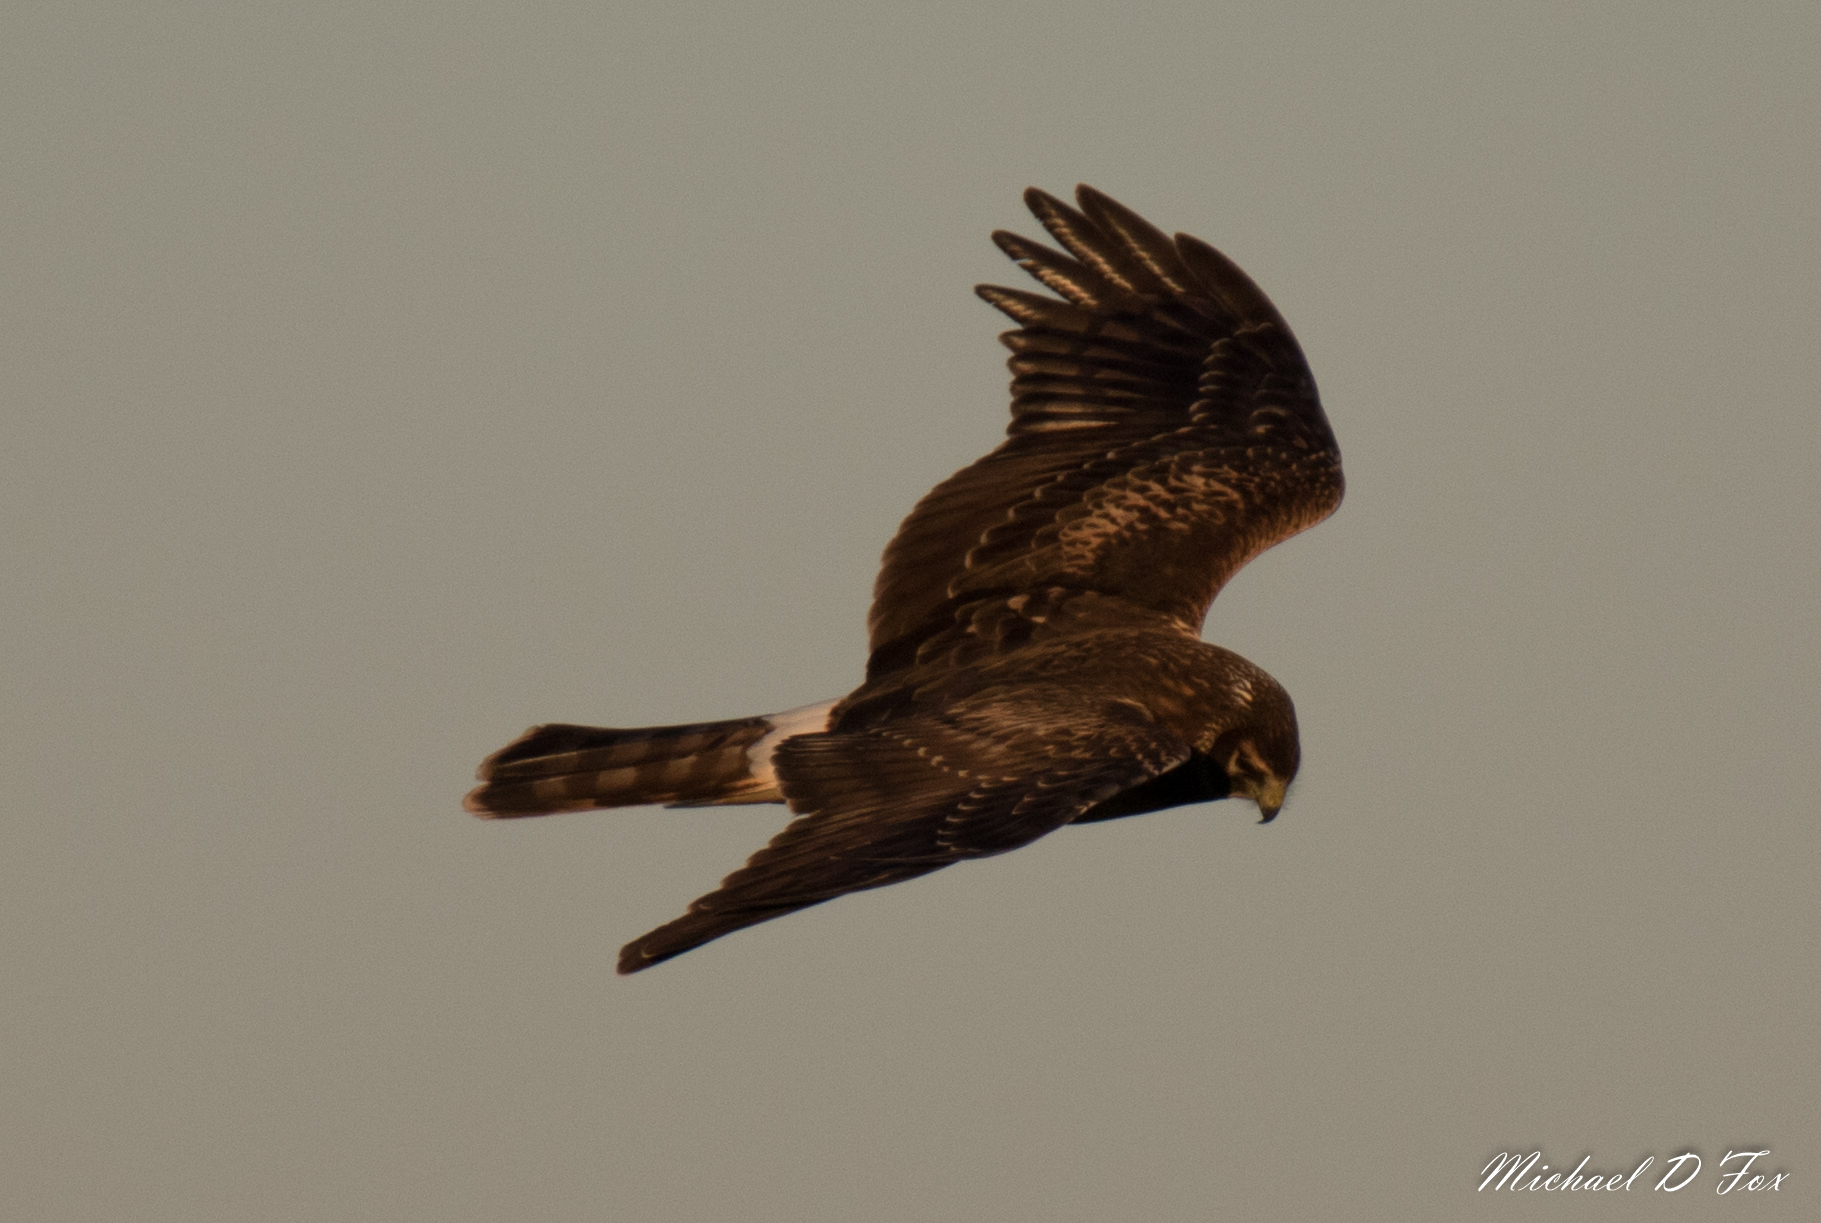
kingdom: Animalia
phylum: Chordata
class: Aves
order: Accipitriformes
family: Accipitridae
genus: Circus
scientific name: Circus cyaneus
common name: Hen harrier
